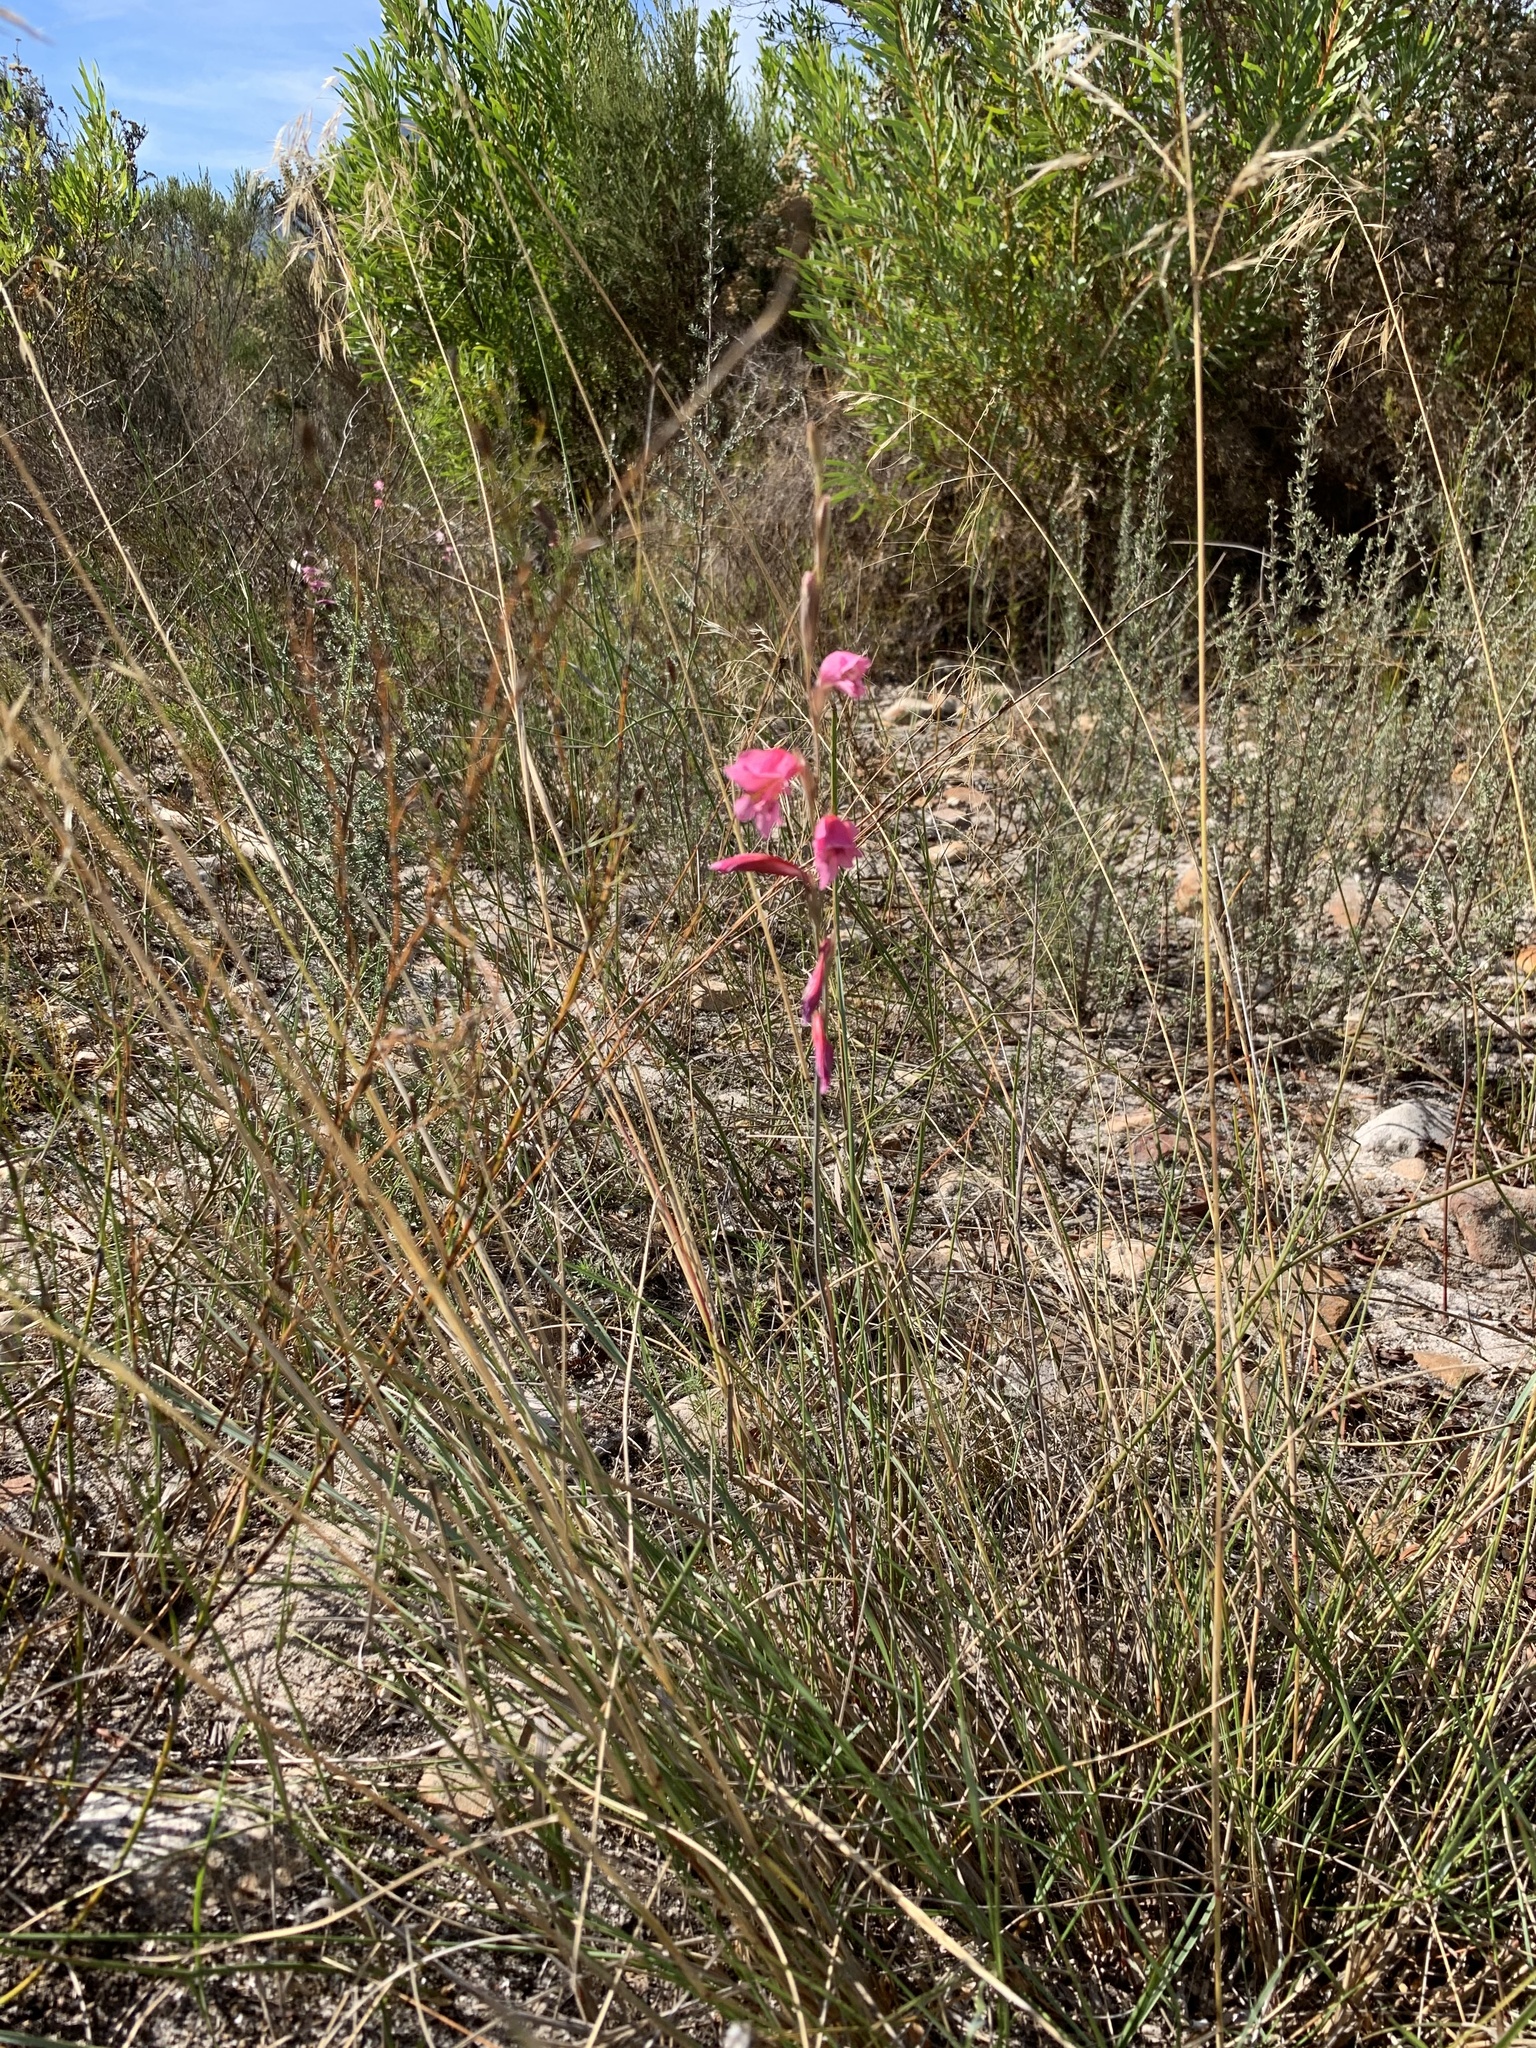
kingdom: Plantae
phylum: Tracheophyta
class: Liliopsida
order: Asparagales
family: Iridaceae
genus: Gladiolus
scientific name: Gladiolus brevifolius
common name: March pypie
